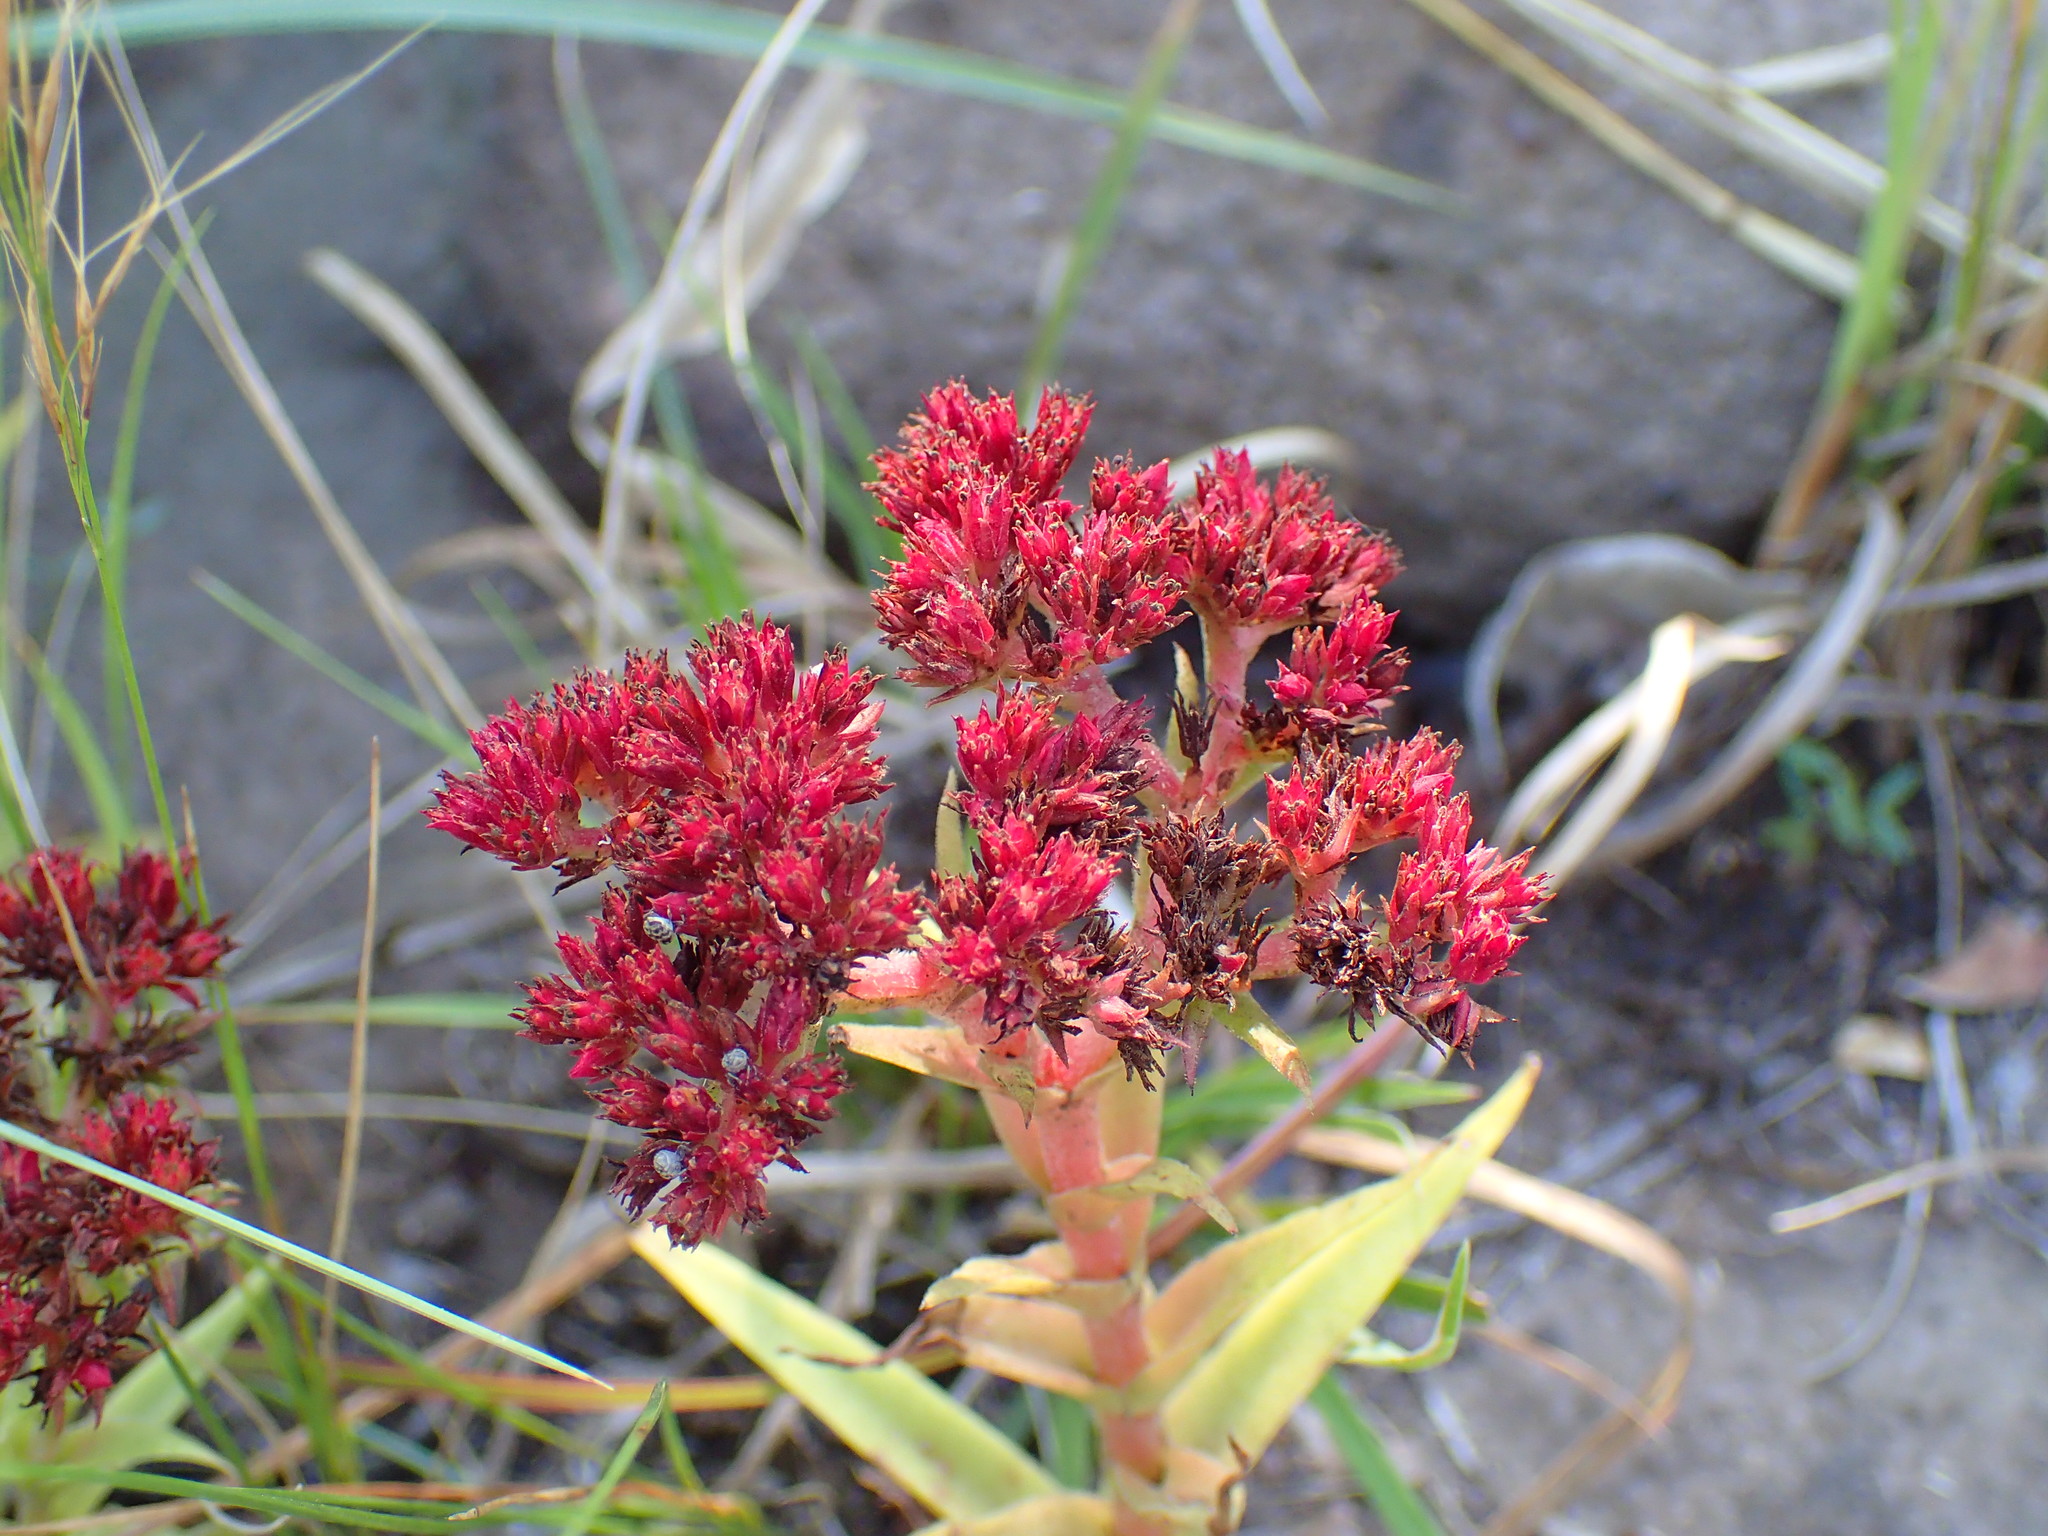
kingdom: Plantae
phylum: Tracheophyta
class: Magnoliopsida
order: Saxifragales
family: Crassulaceae
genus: Crassula
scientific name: Crassula alba
